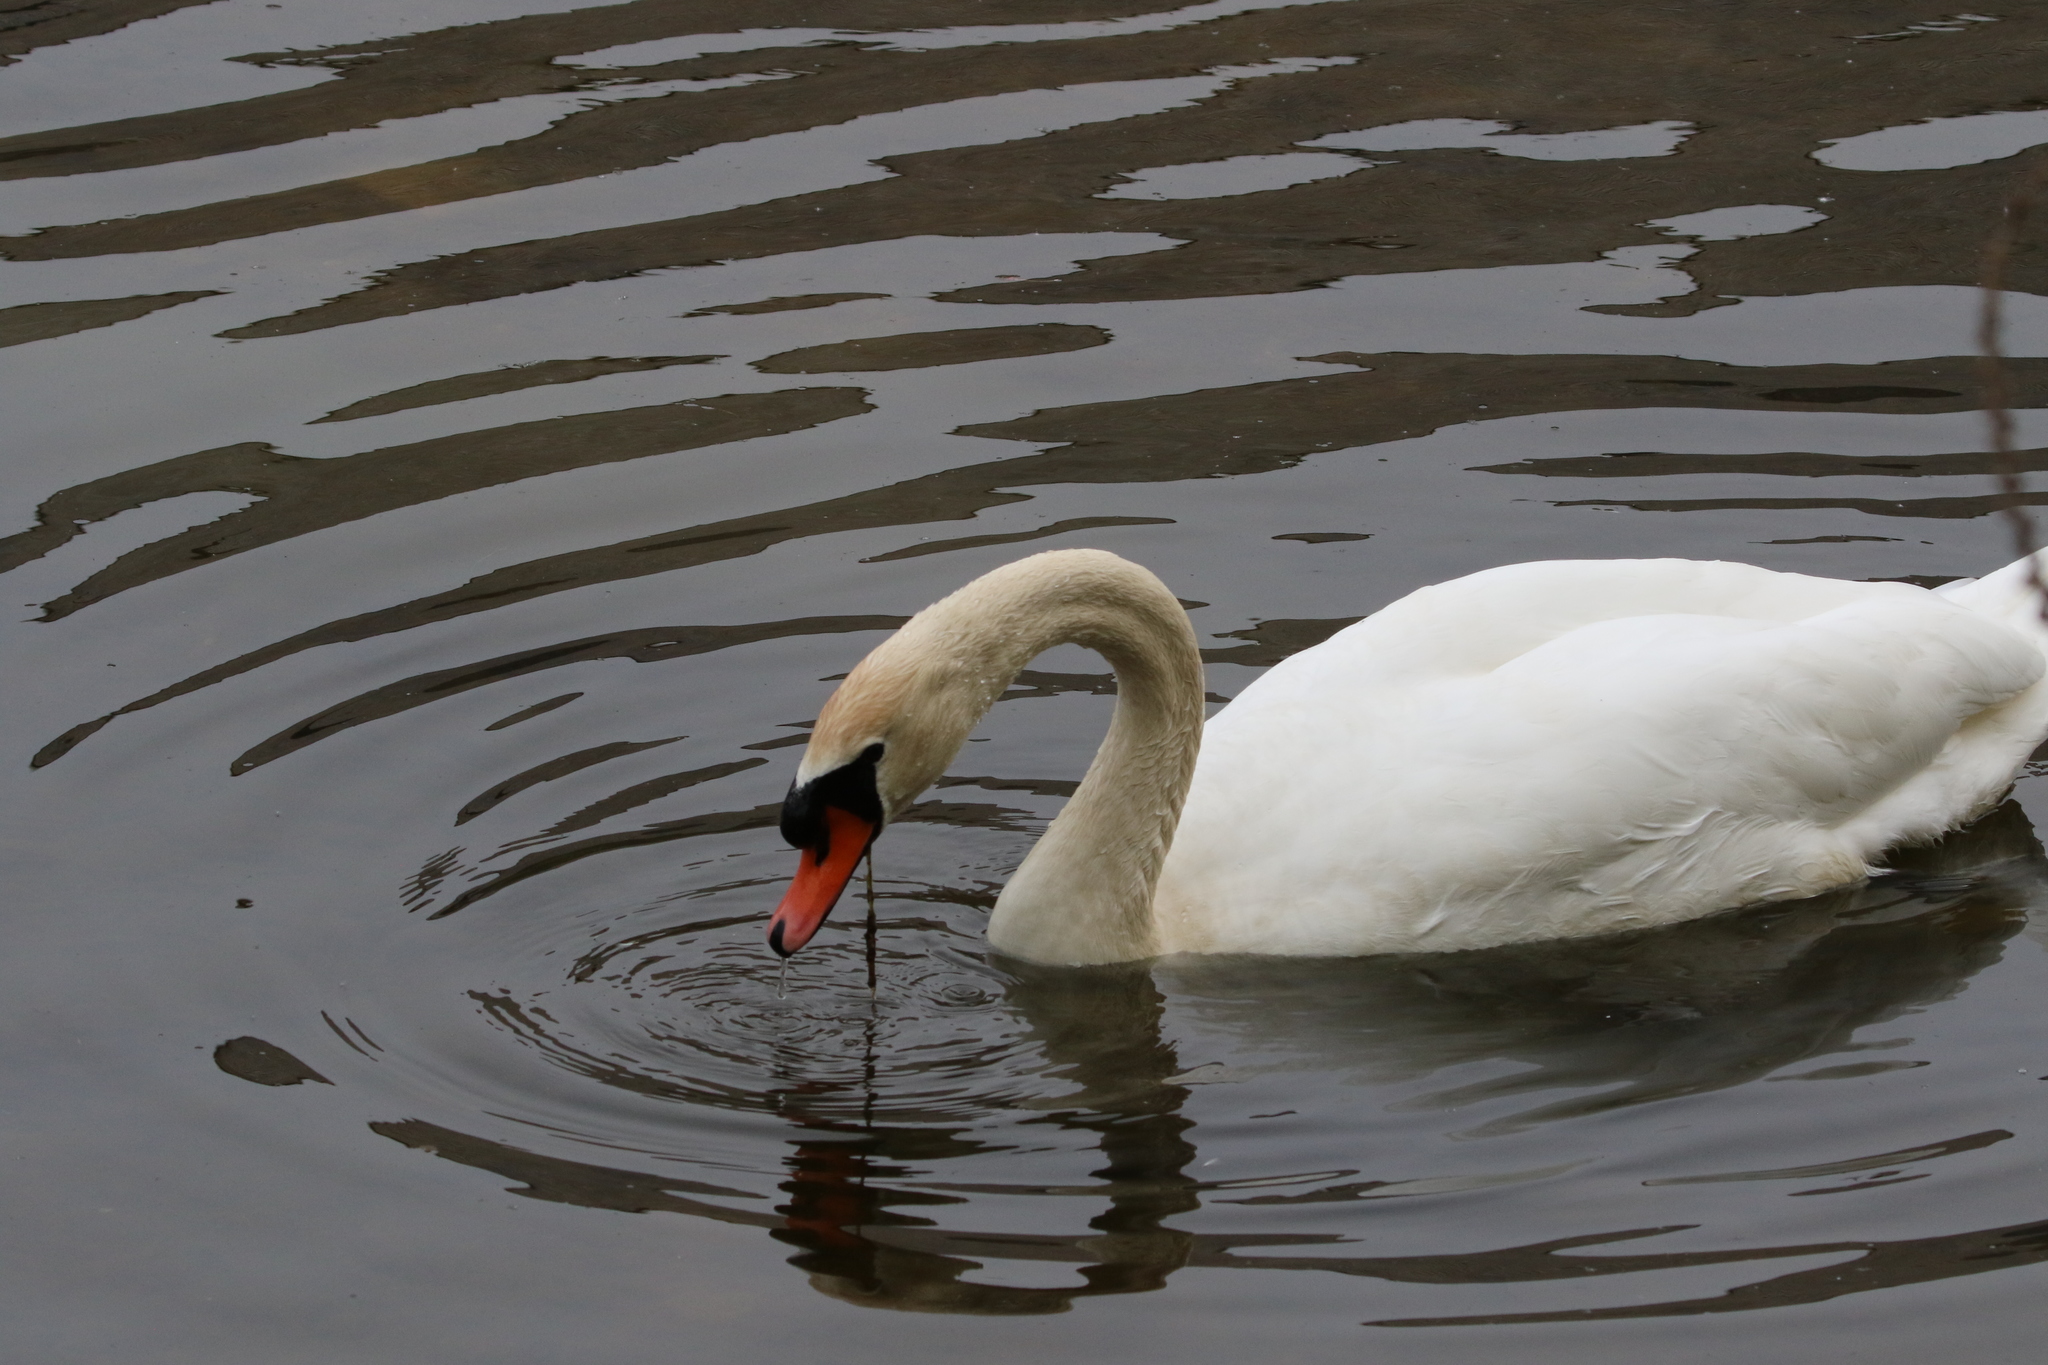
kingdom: Animalia
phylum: Chordata
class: Aves
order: Anseriformes
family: Anatidae
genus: Cygnus
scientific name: Cygnus olor
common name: Mute swan
